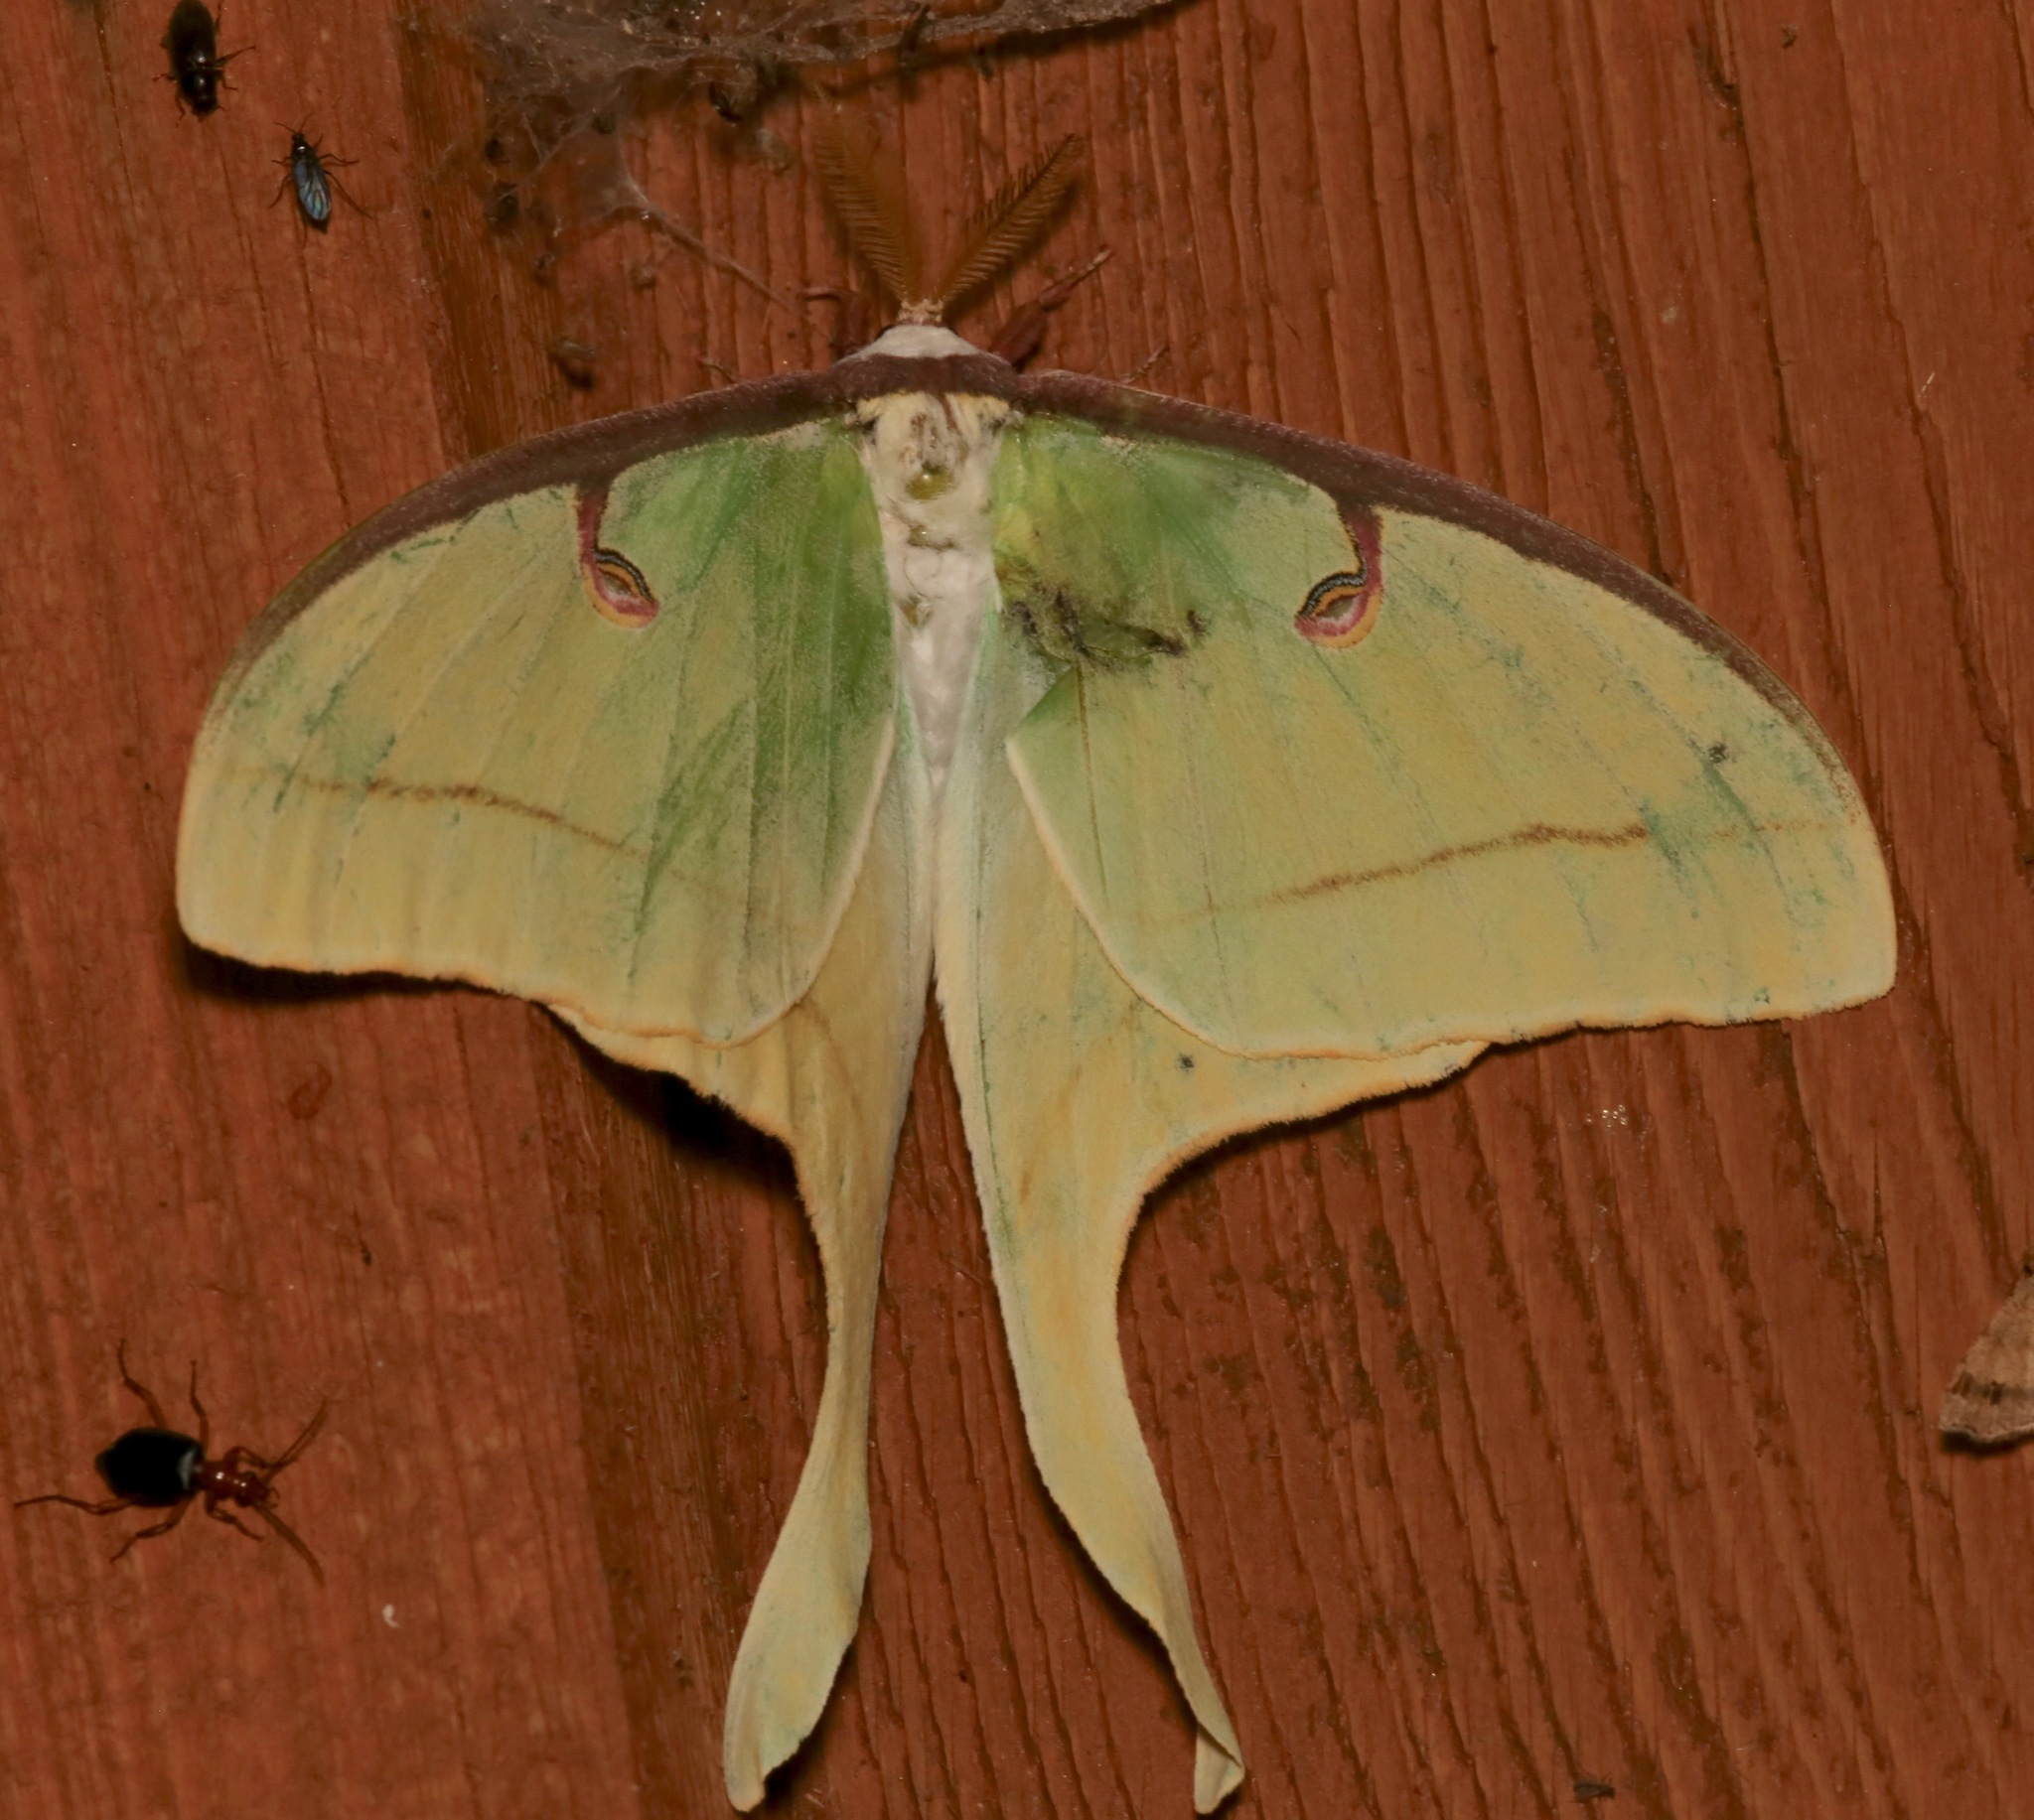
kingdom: Animalia
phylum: Arthropoda
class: Insecta
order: Lepidoptera
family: Saturniidae
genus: Actias
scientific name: Actias luna
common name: Luna moth
